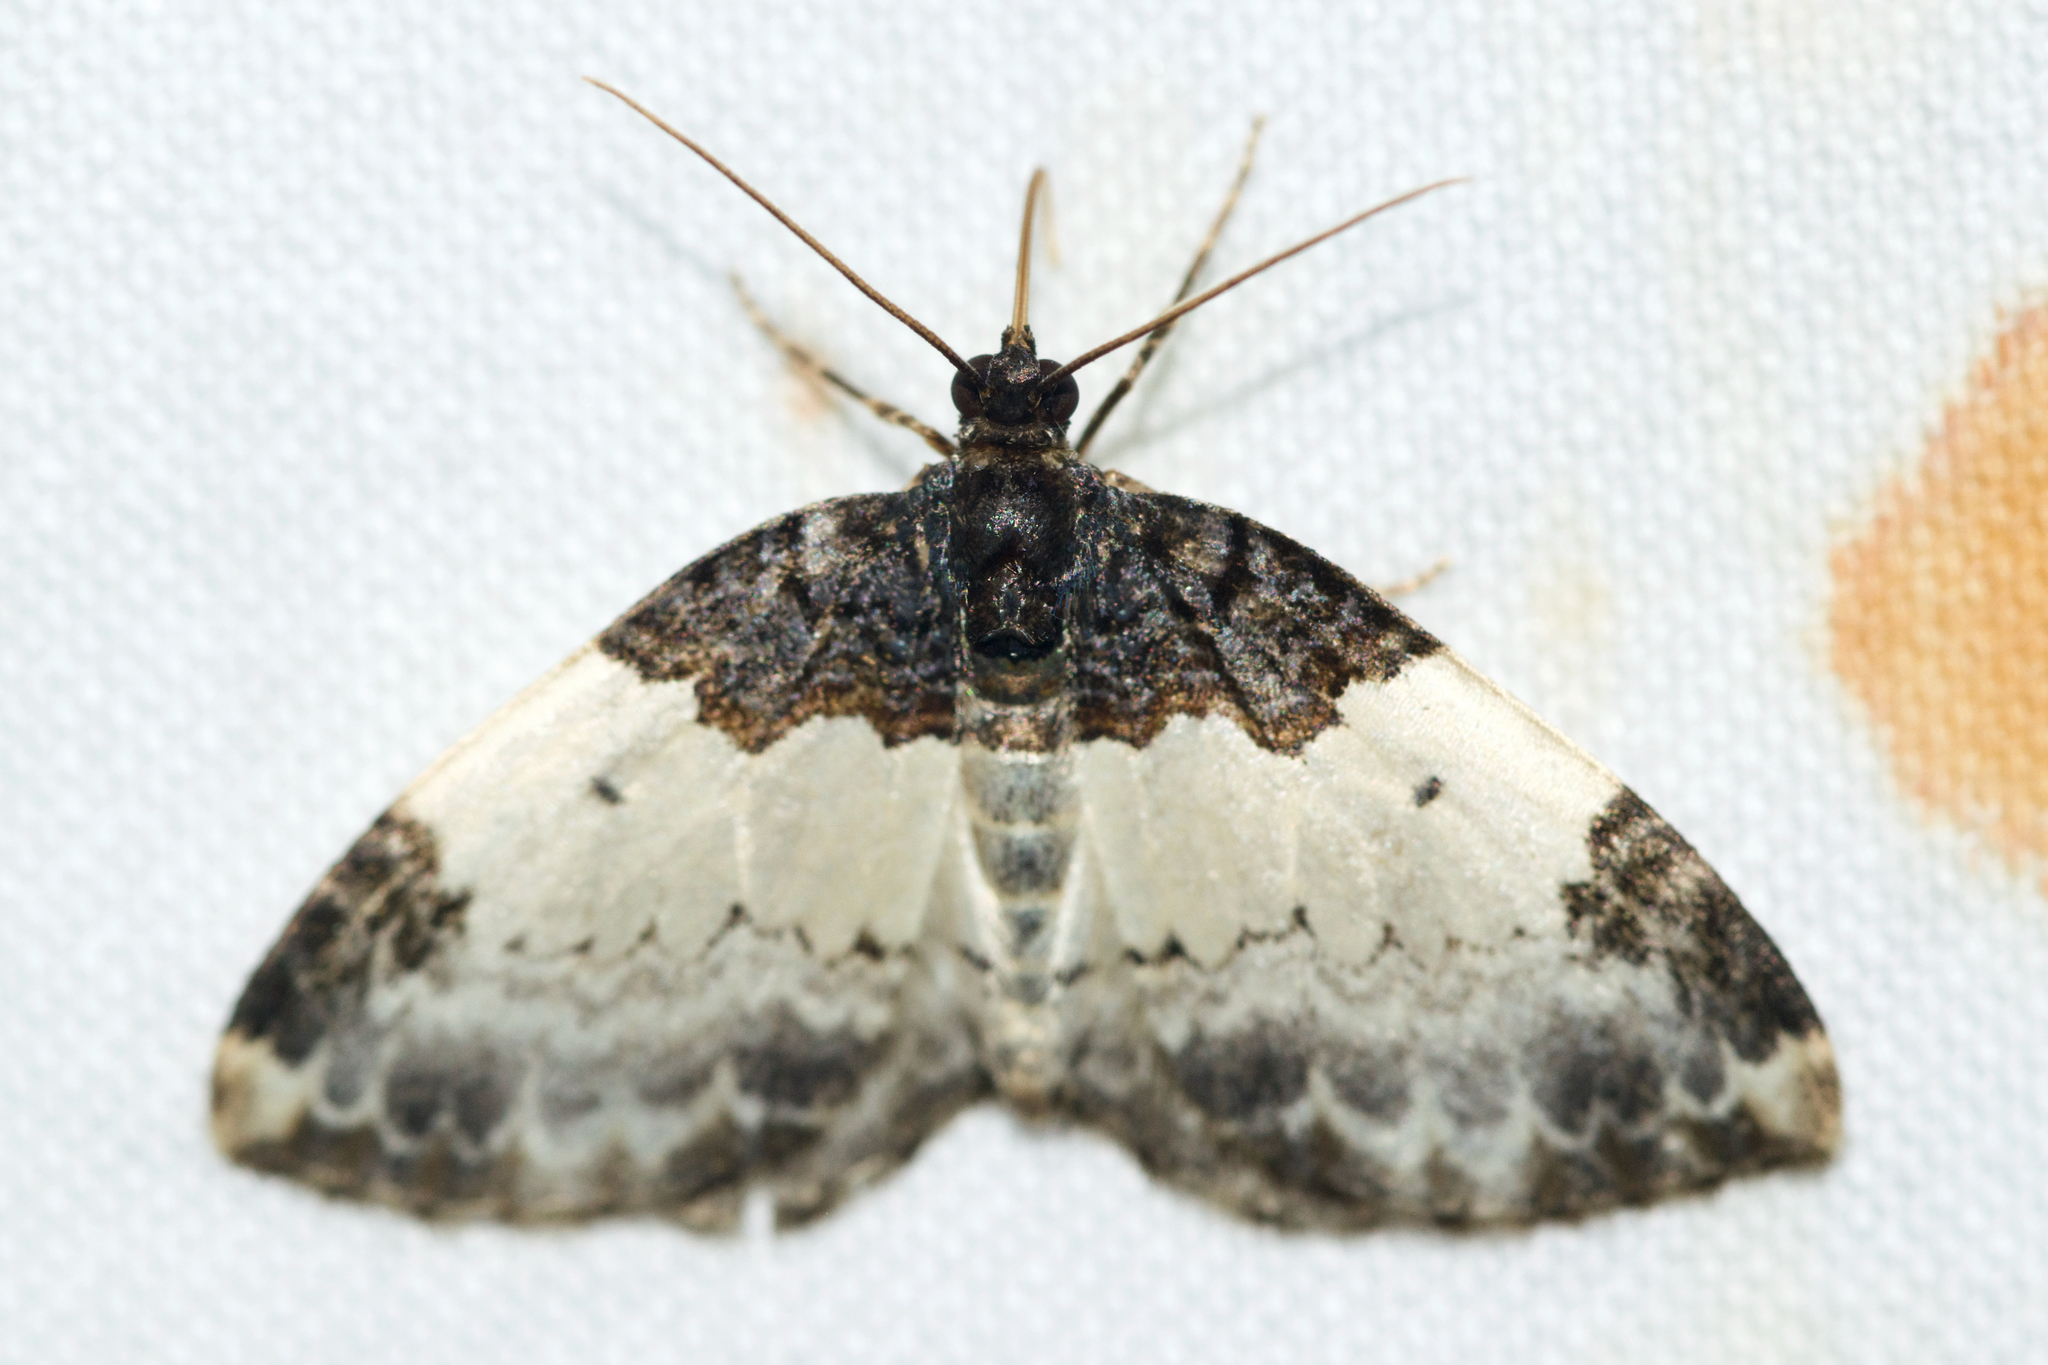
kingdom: Animalia
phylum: Arthropoda
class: Insecta
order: Lepidoptera
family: Geometridae
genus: Mesoleuca
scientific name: Mesoleuca ruficillata
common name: White-ribboned carpet moth
